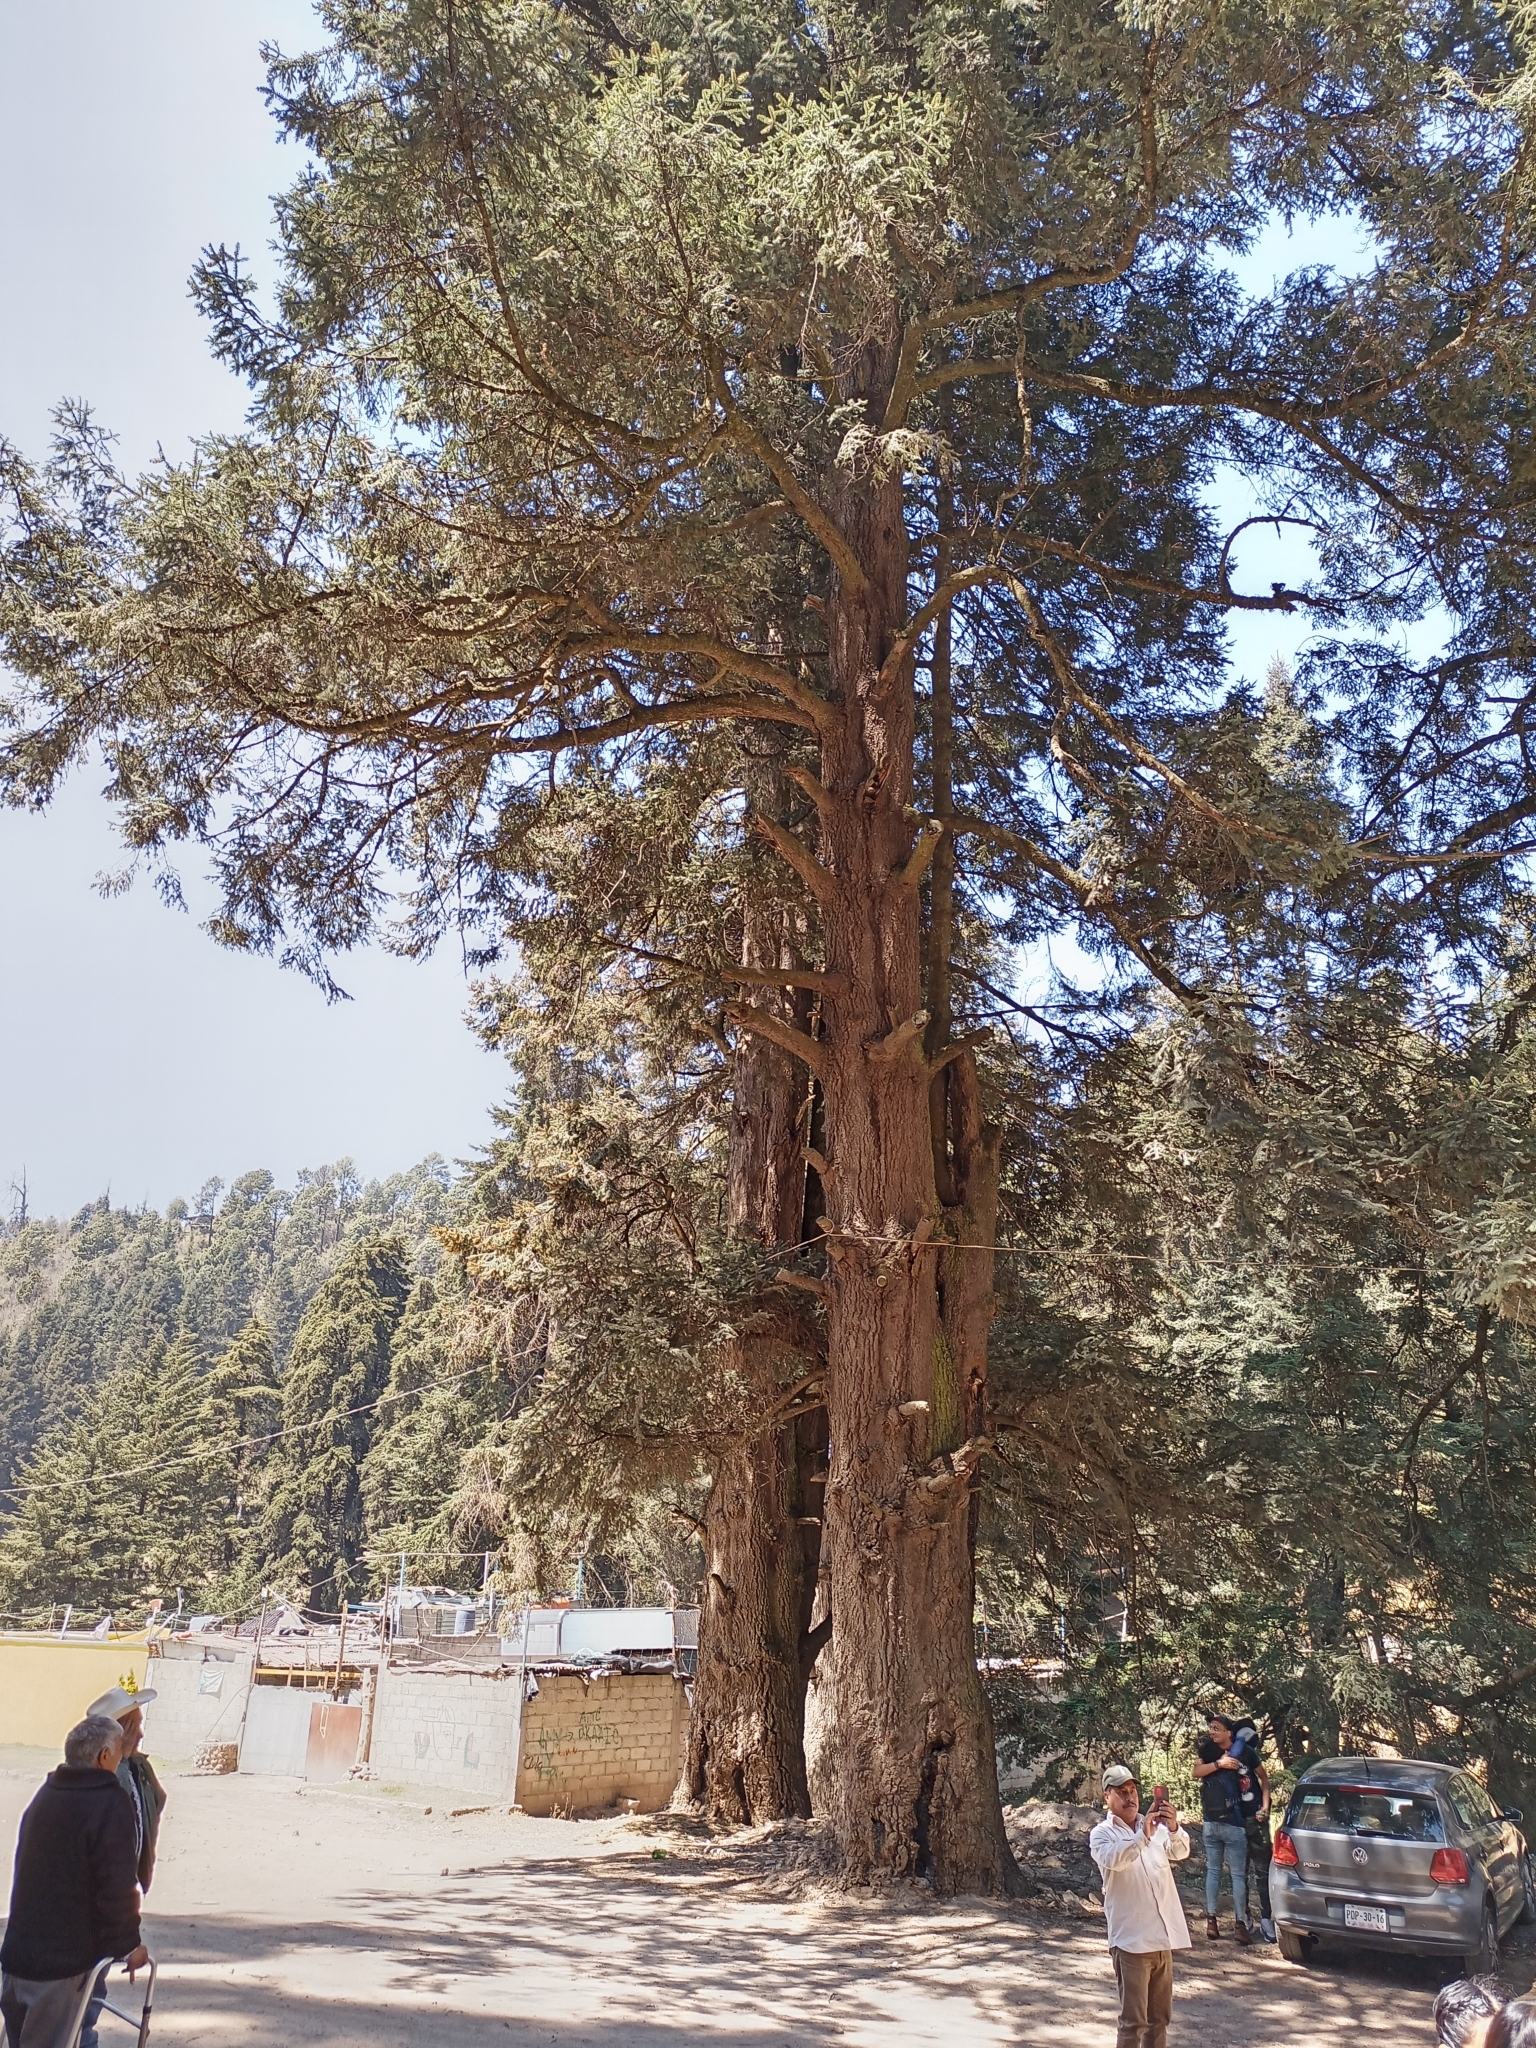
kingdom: Plantae
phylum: Tracheophyta
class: Pinopsida
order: Pinales
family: Pinaceae
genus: Abies
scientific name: Abies religiosa
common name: Sacred fir
